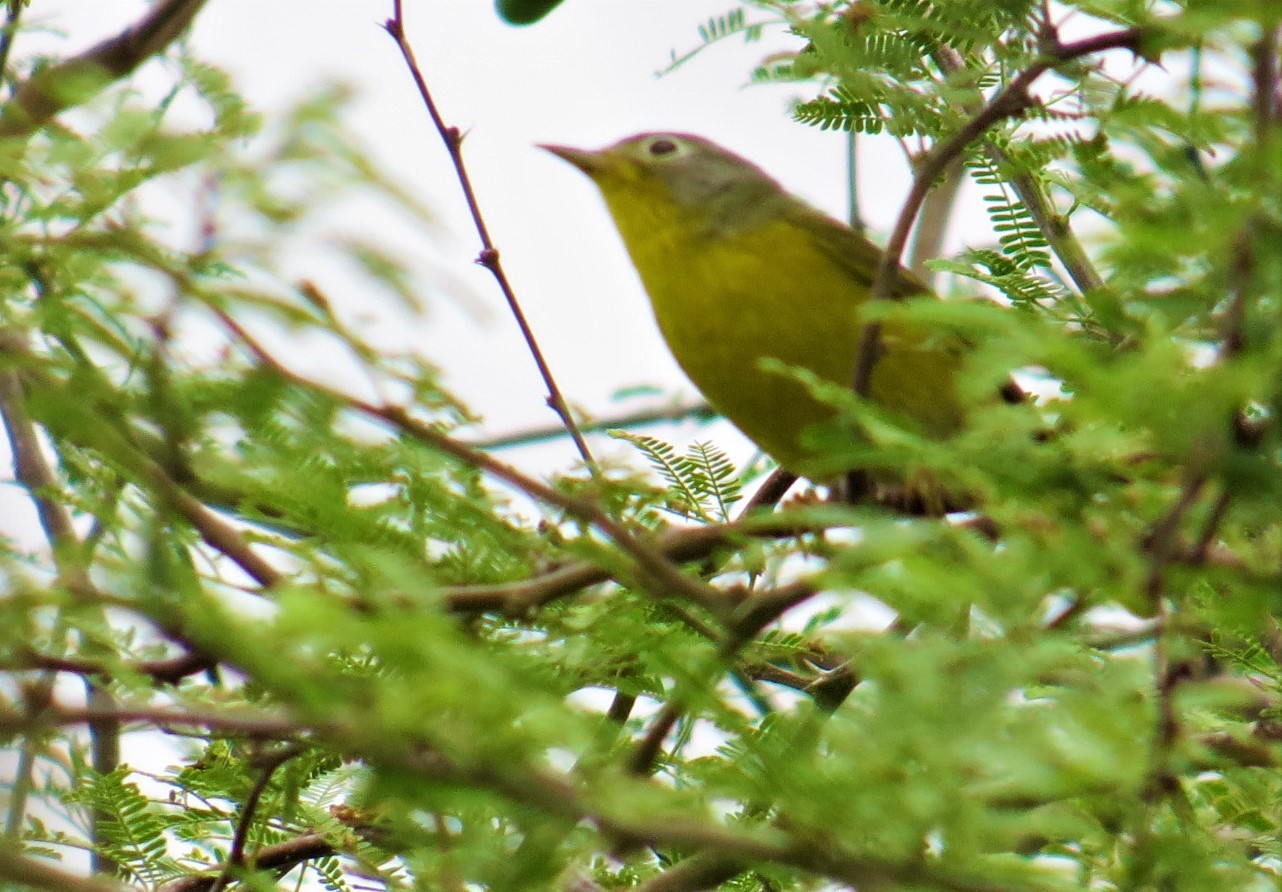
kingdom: Animalia
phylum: Chordata
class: Aves
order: Passeriformes
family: Parulidae
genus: Leiothlypis
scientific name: Leiothlypis ruficapilla
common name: Nashville warbler
